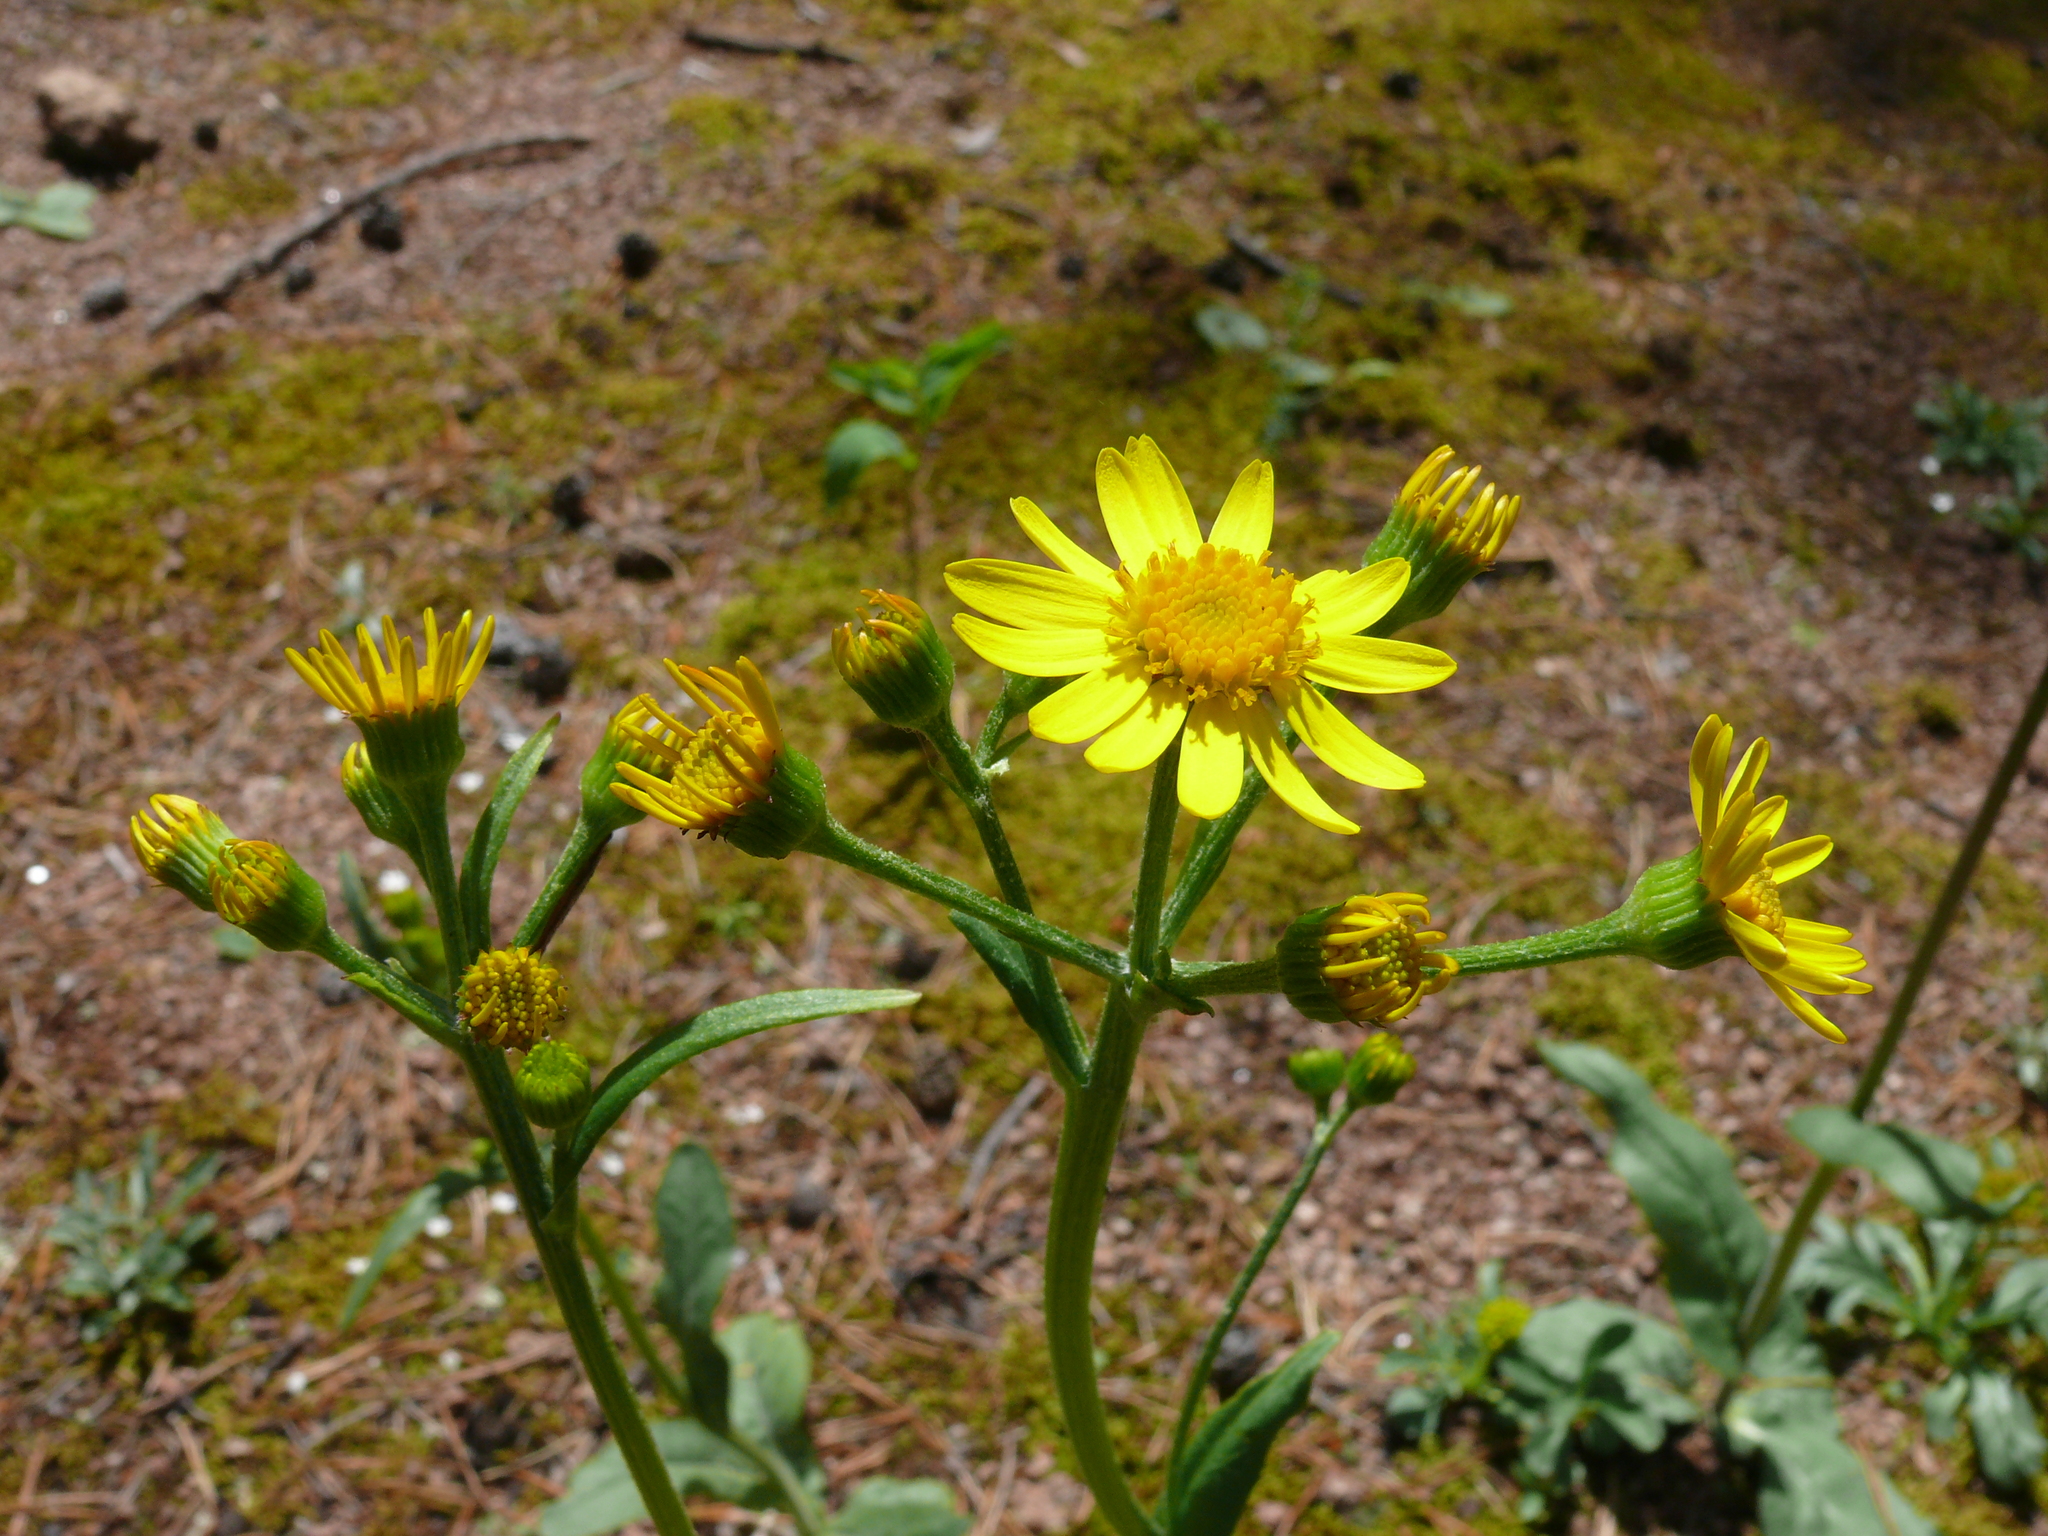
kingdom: Plantae
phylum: Tracheophyta
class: Magnoliopsida
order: Asterales
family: Asteraceae
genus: Tephroseris
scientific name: Tephroseris integrifolia
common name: Field fleawort
